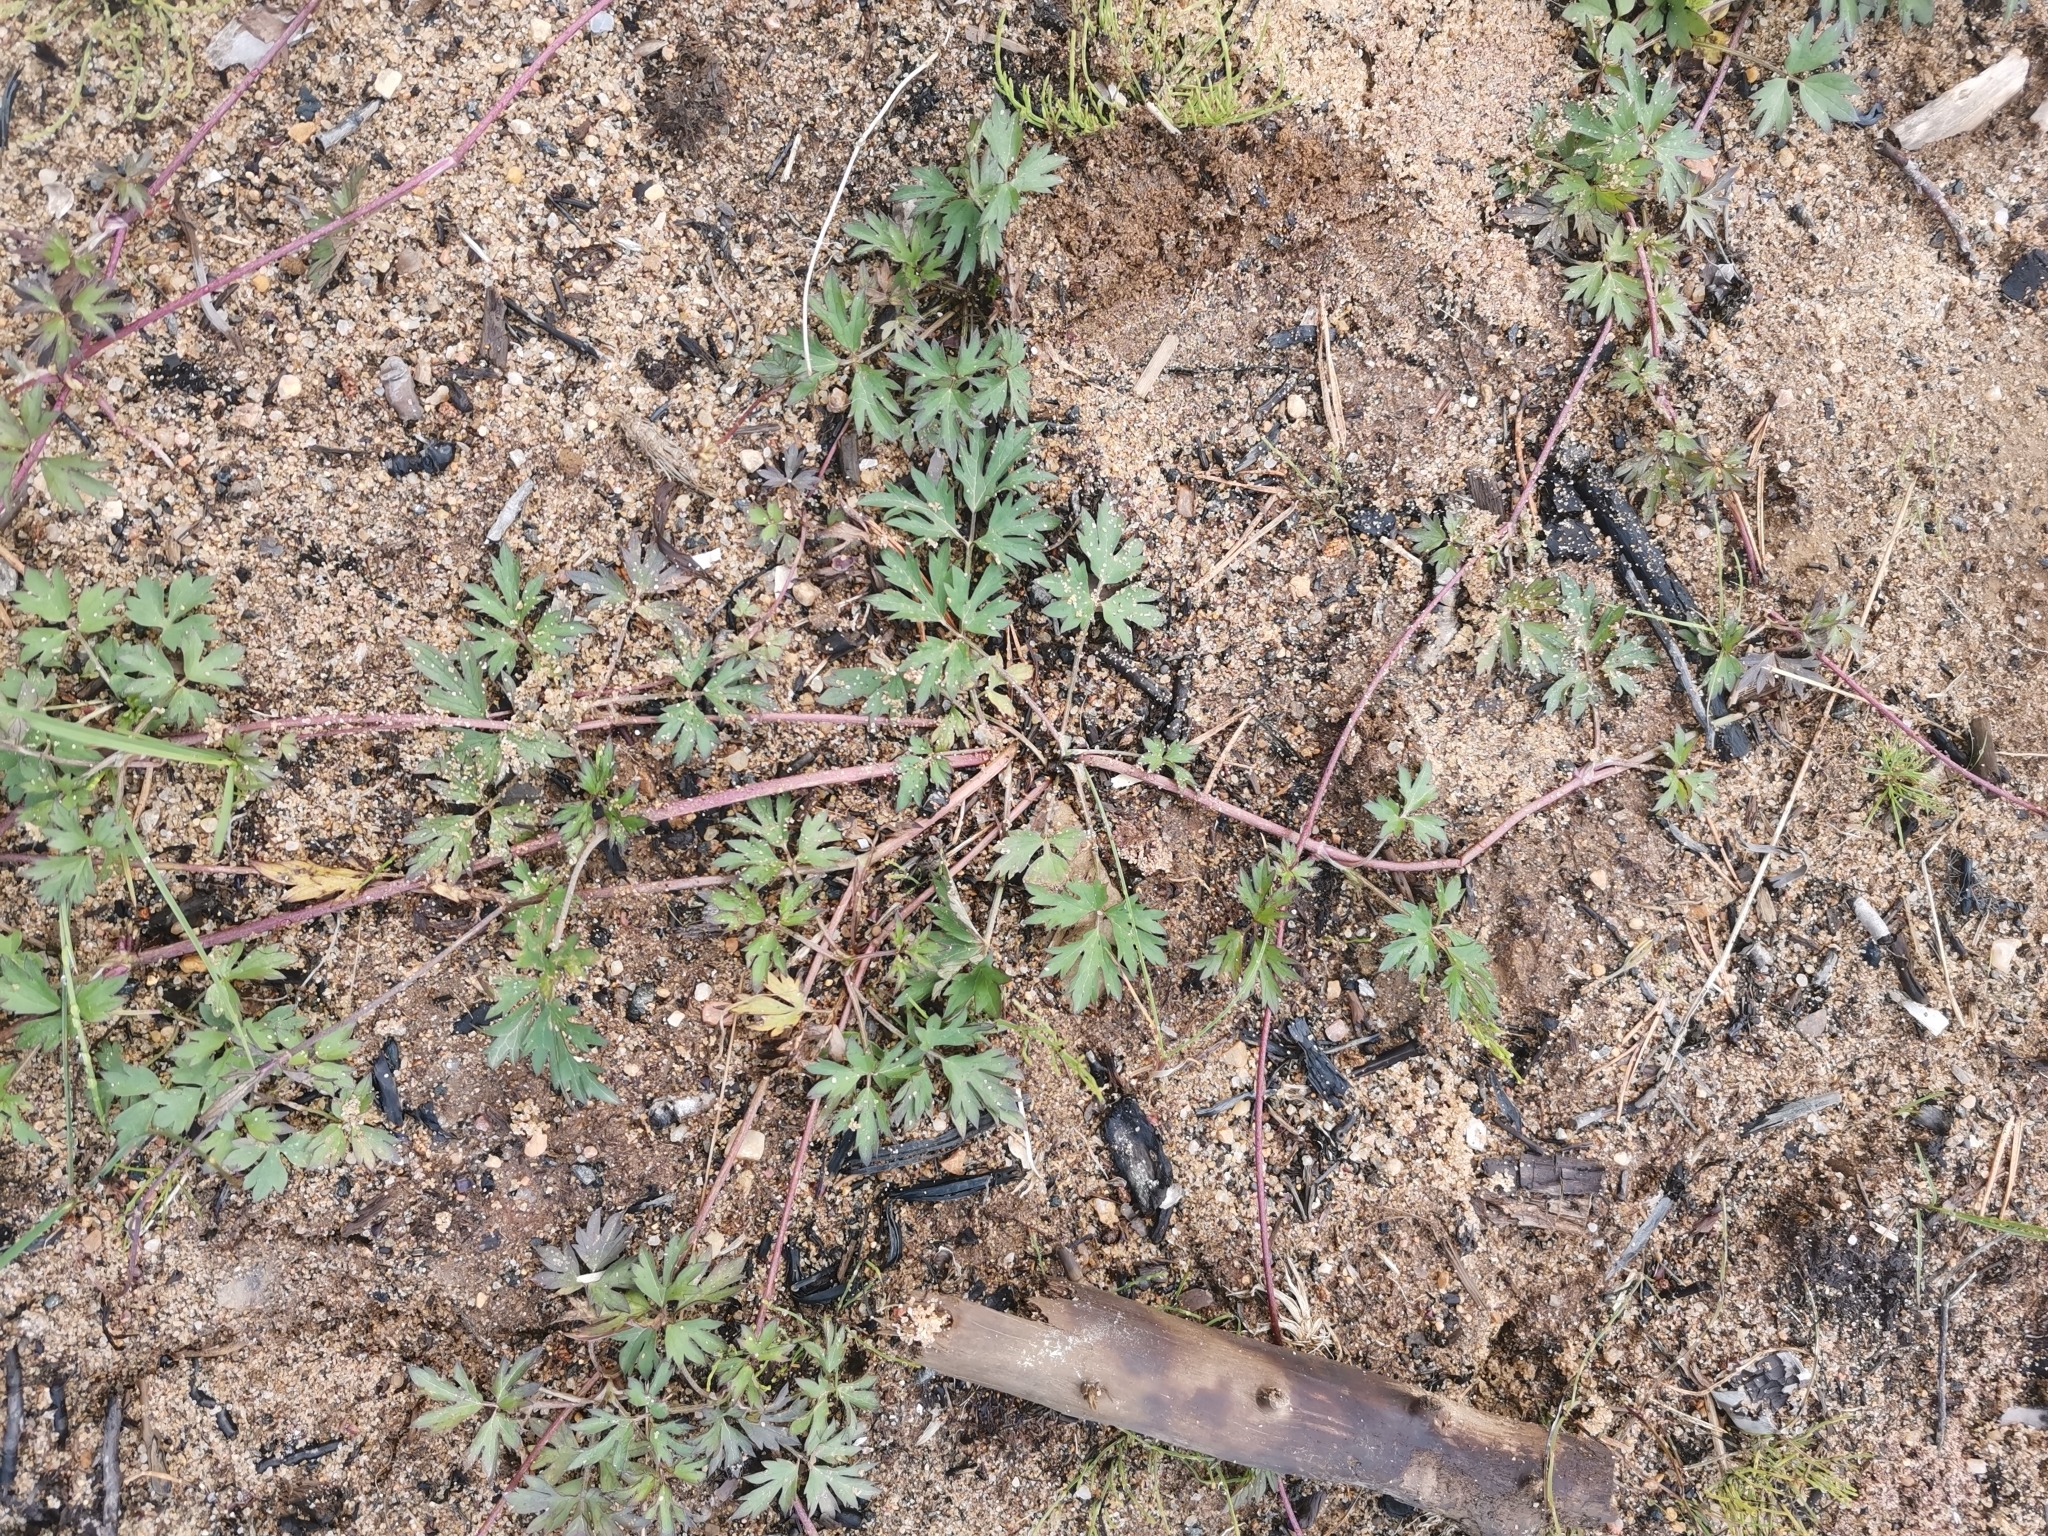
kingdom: Plantae
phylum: Tracheophyta
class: Magnoliopsida
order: Ranunculales
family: Ranunculaceae
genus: Ranunculus
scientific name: Ranunculus repens
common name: Creeping buttercup
